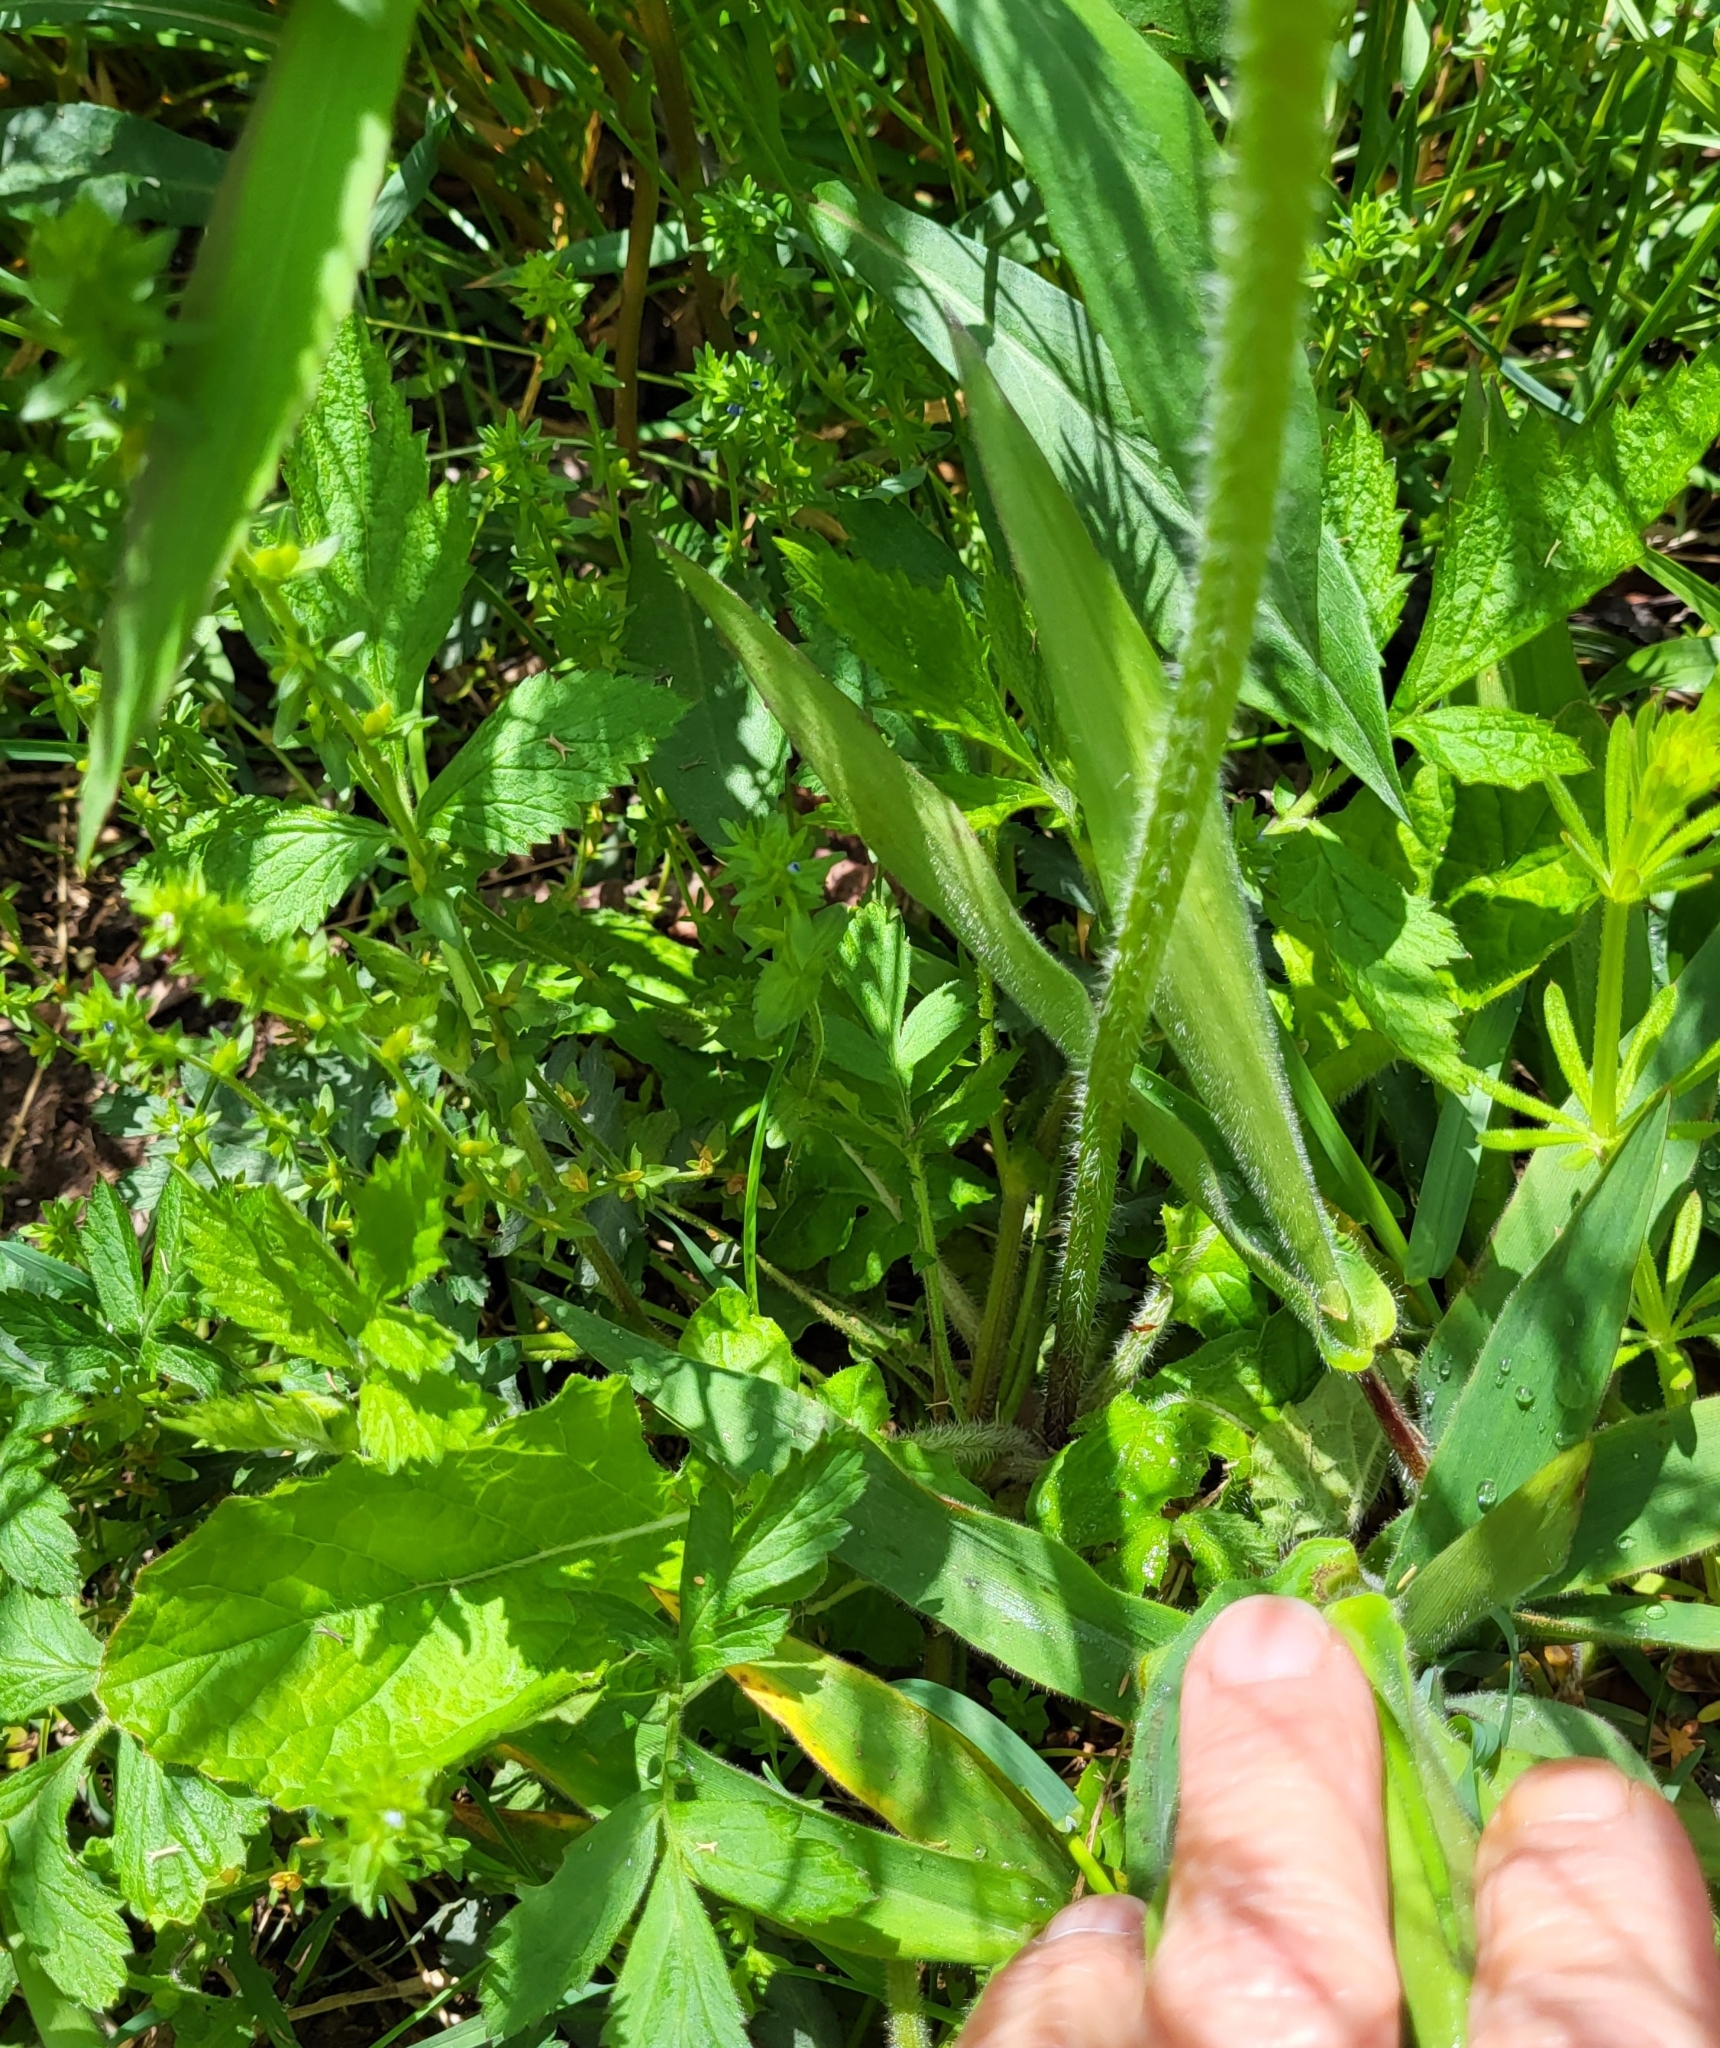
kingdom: Plantae
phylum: Tracheophyta
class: Magnoliopsida
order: Lamiales
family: Lamiaceae
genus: Salvia
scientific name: Salvia lyrata
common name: Cancerweed
